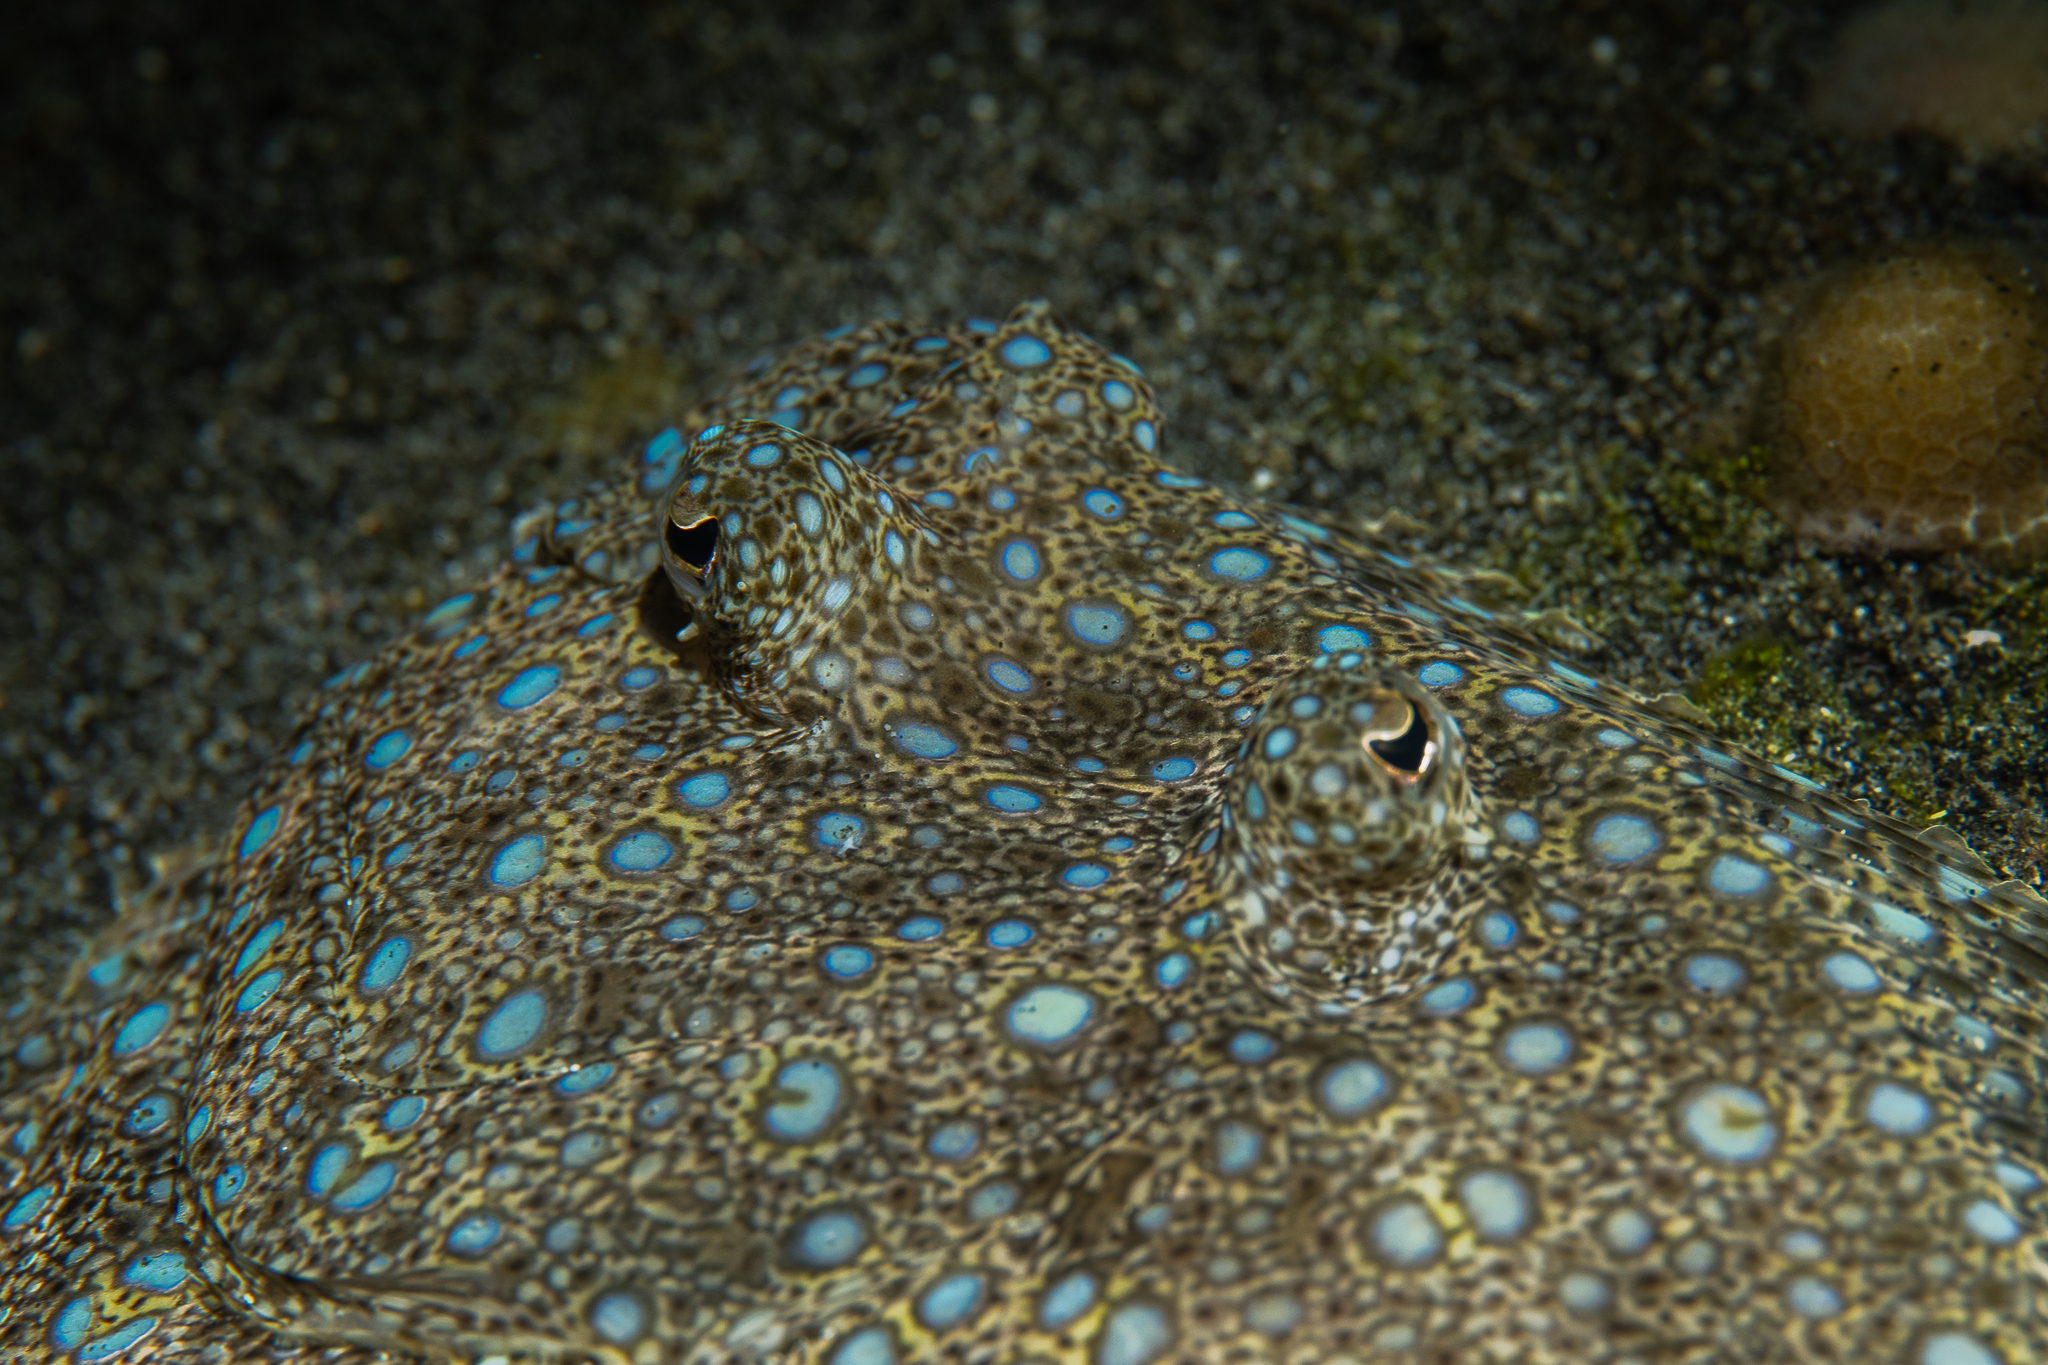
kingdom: Animalia
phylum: Chordata
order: Pleuronectiformes
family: Bothidae
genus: Bothus
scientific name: Bothus mancus
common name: Flowery flounder
